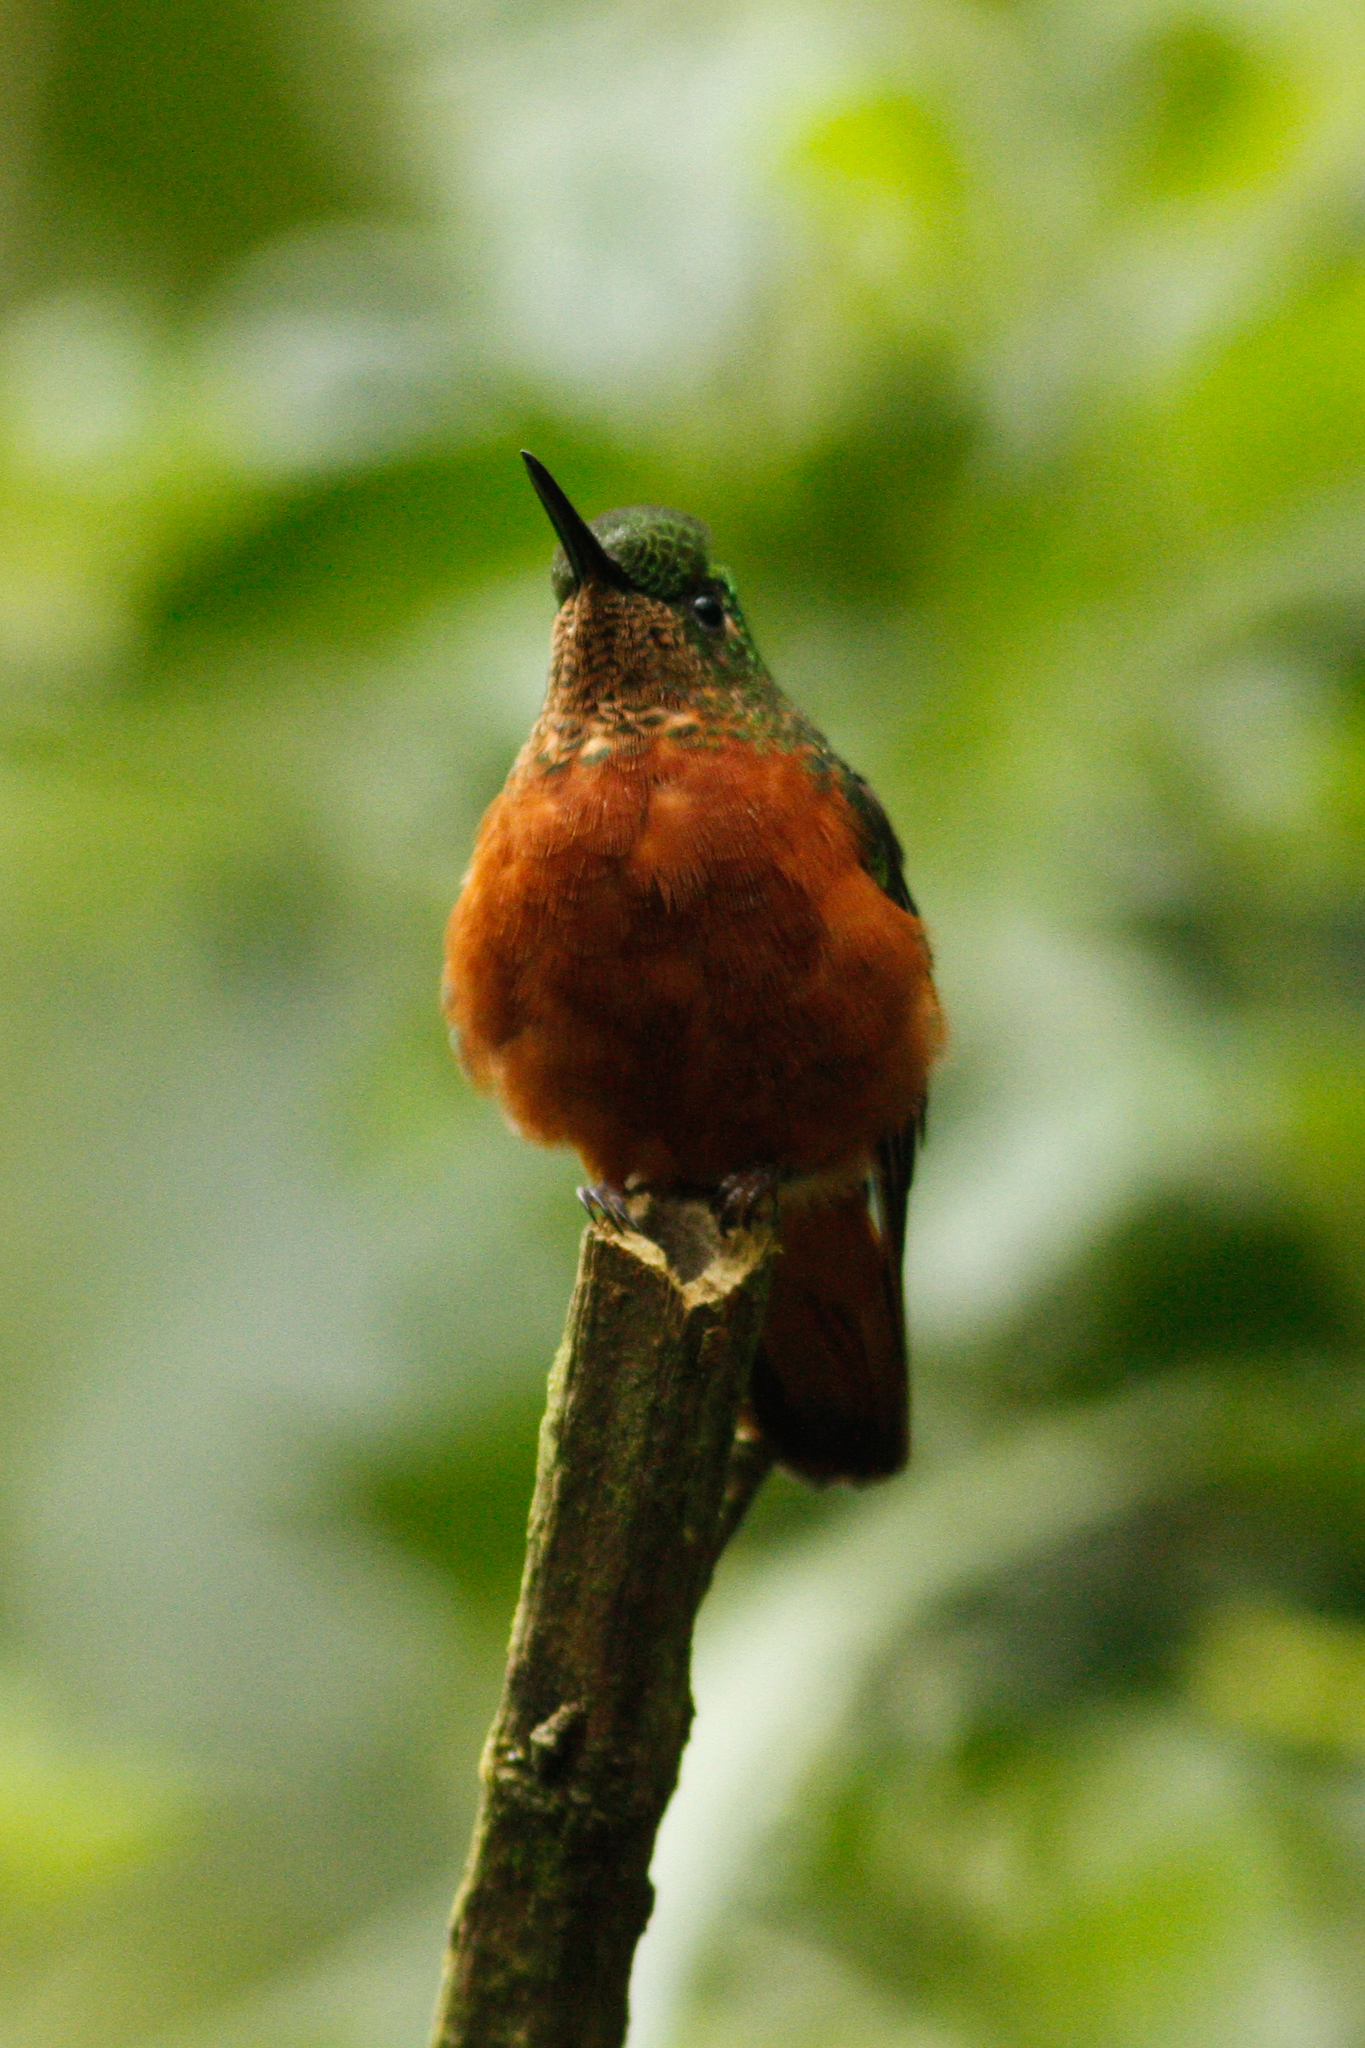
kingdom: Animalia
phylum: Chordata
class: Aves
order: Apodiformes
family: Trochilidae
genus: Boissonneaua
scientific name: Boissonneaua matthewsii
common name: Chestnut-breasted coronet
